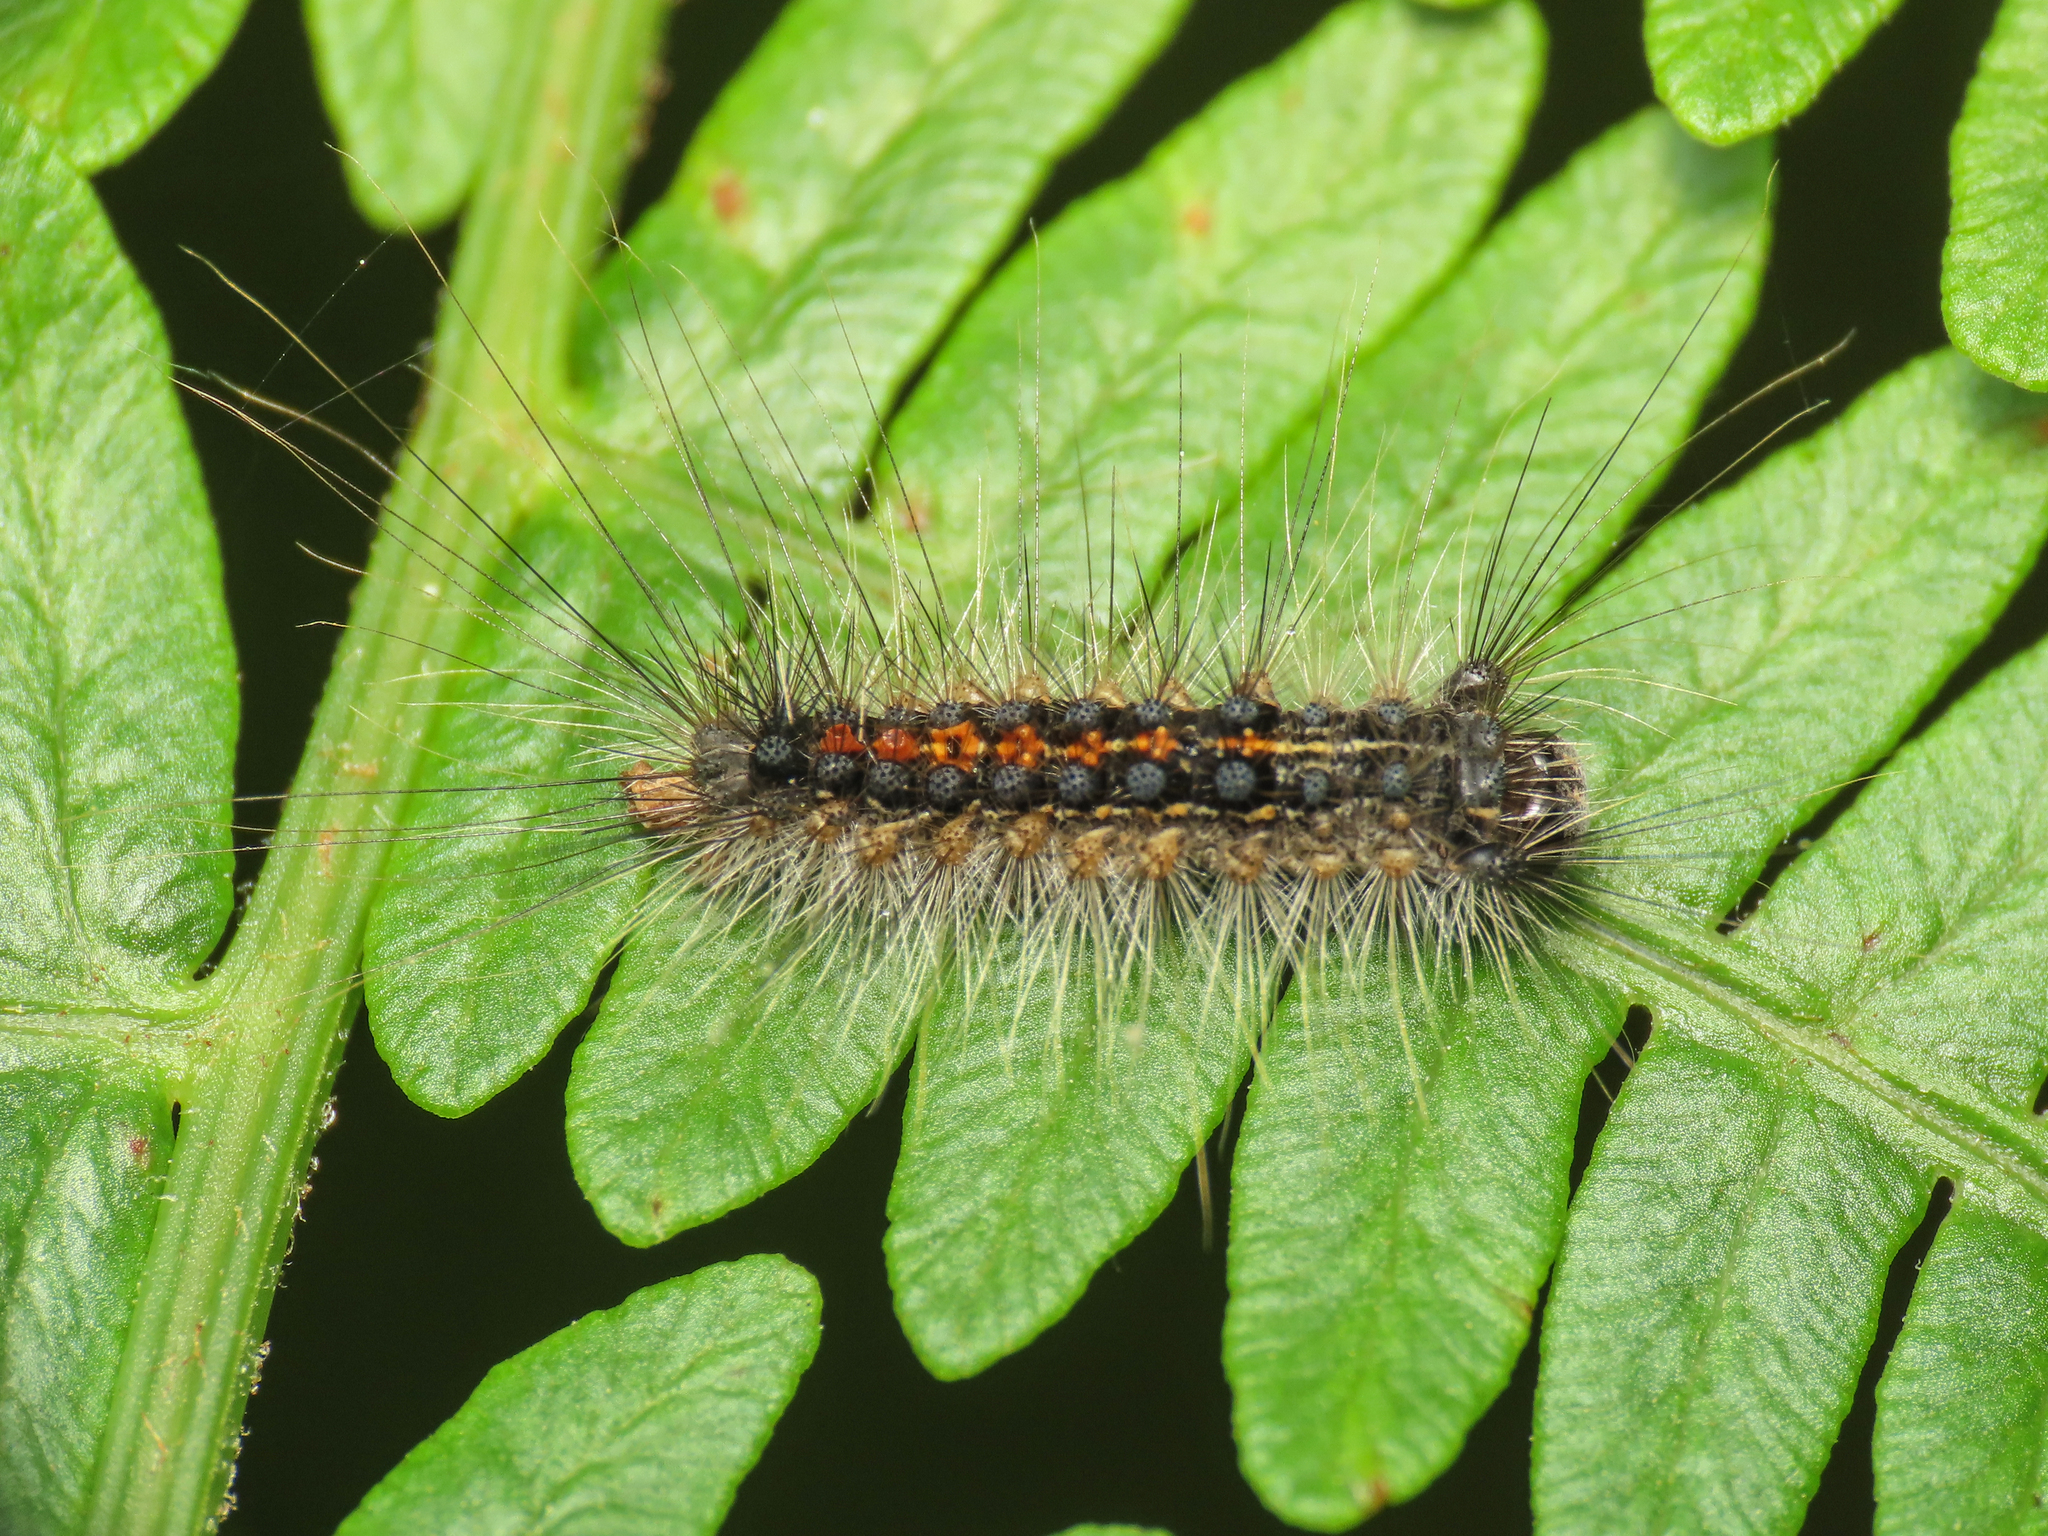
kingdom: Animalia
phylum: Arthropoda
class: Insecta
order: Lepidoptera
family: Erebidae
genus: Lymantria
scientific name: Lymantria dispar
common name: Gypsy moth
